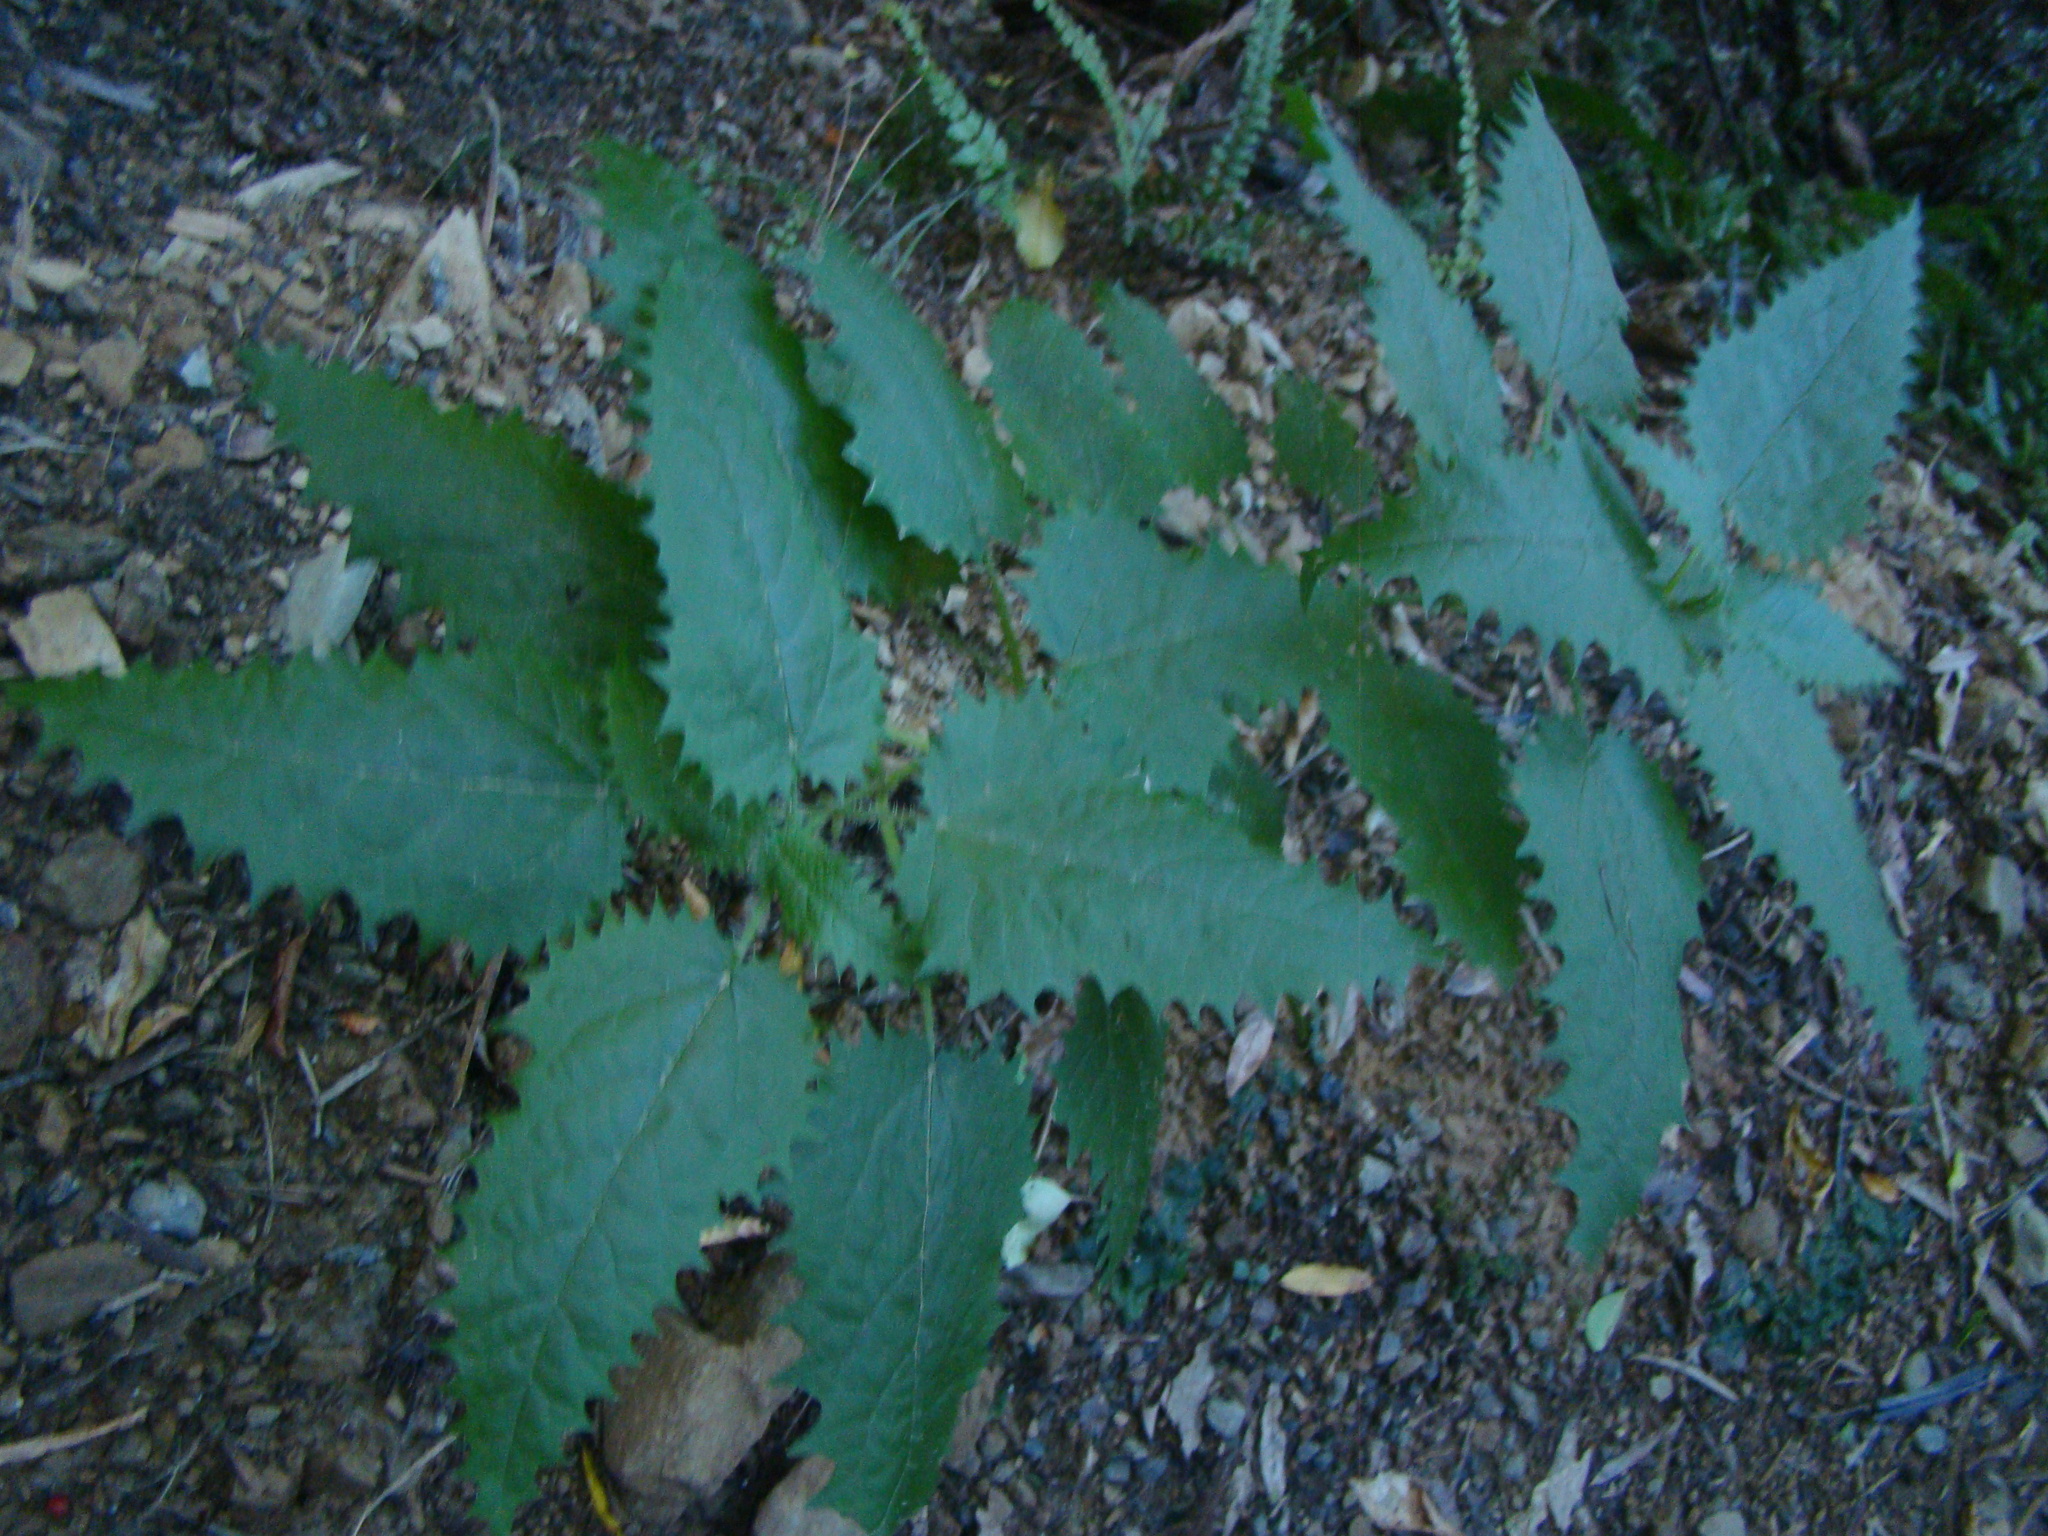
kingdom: Plantae
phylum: Tracheophyta
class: Magnoliopsida
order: Rosales
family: Urticaceae
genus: Urtica
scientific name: Urtica ferox
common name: Tree nettle
